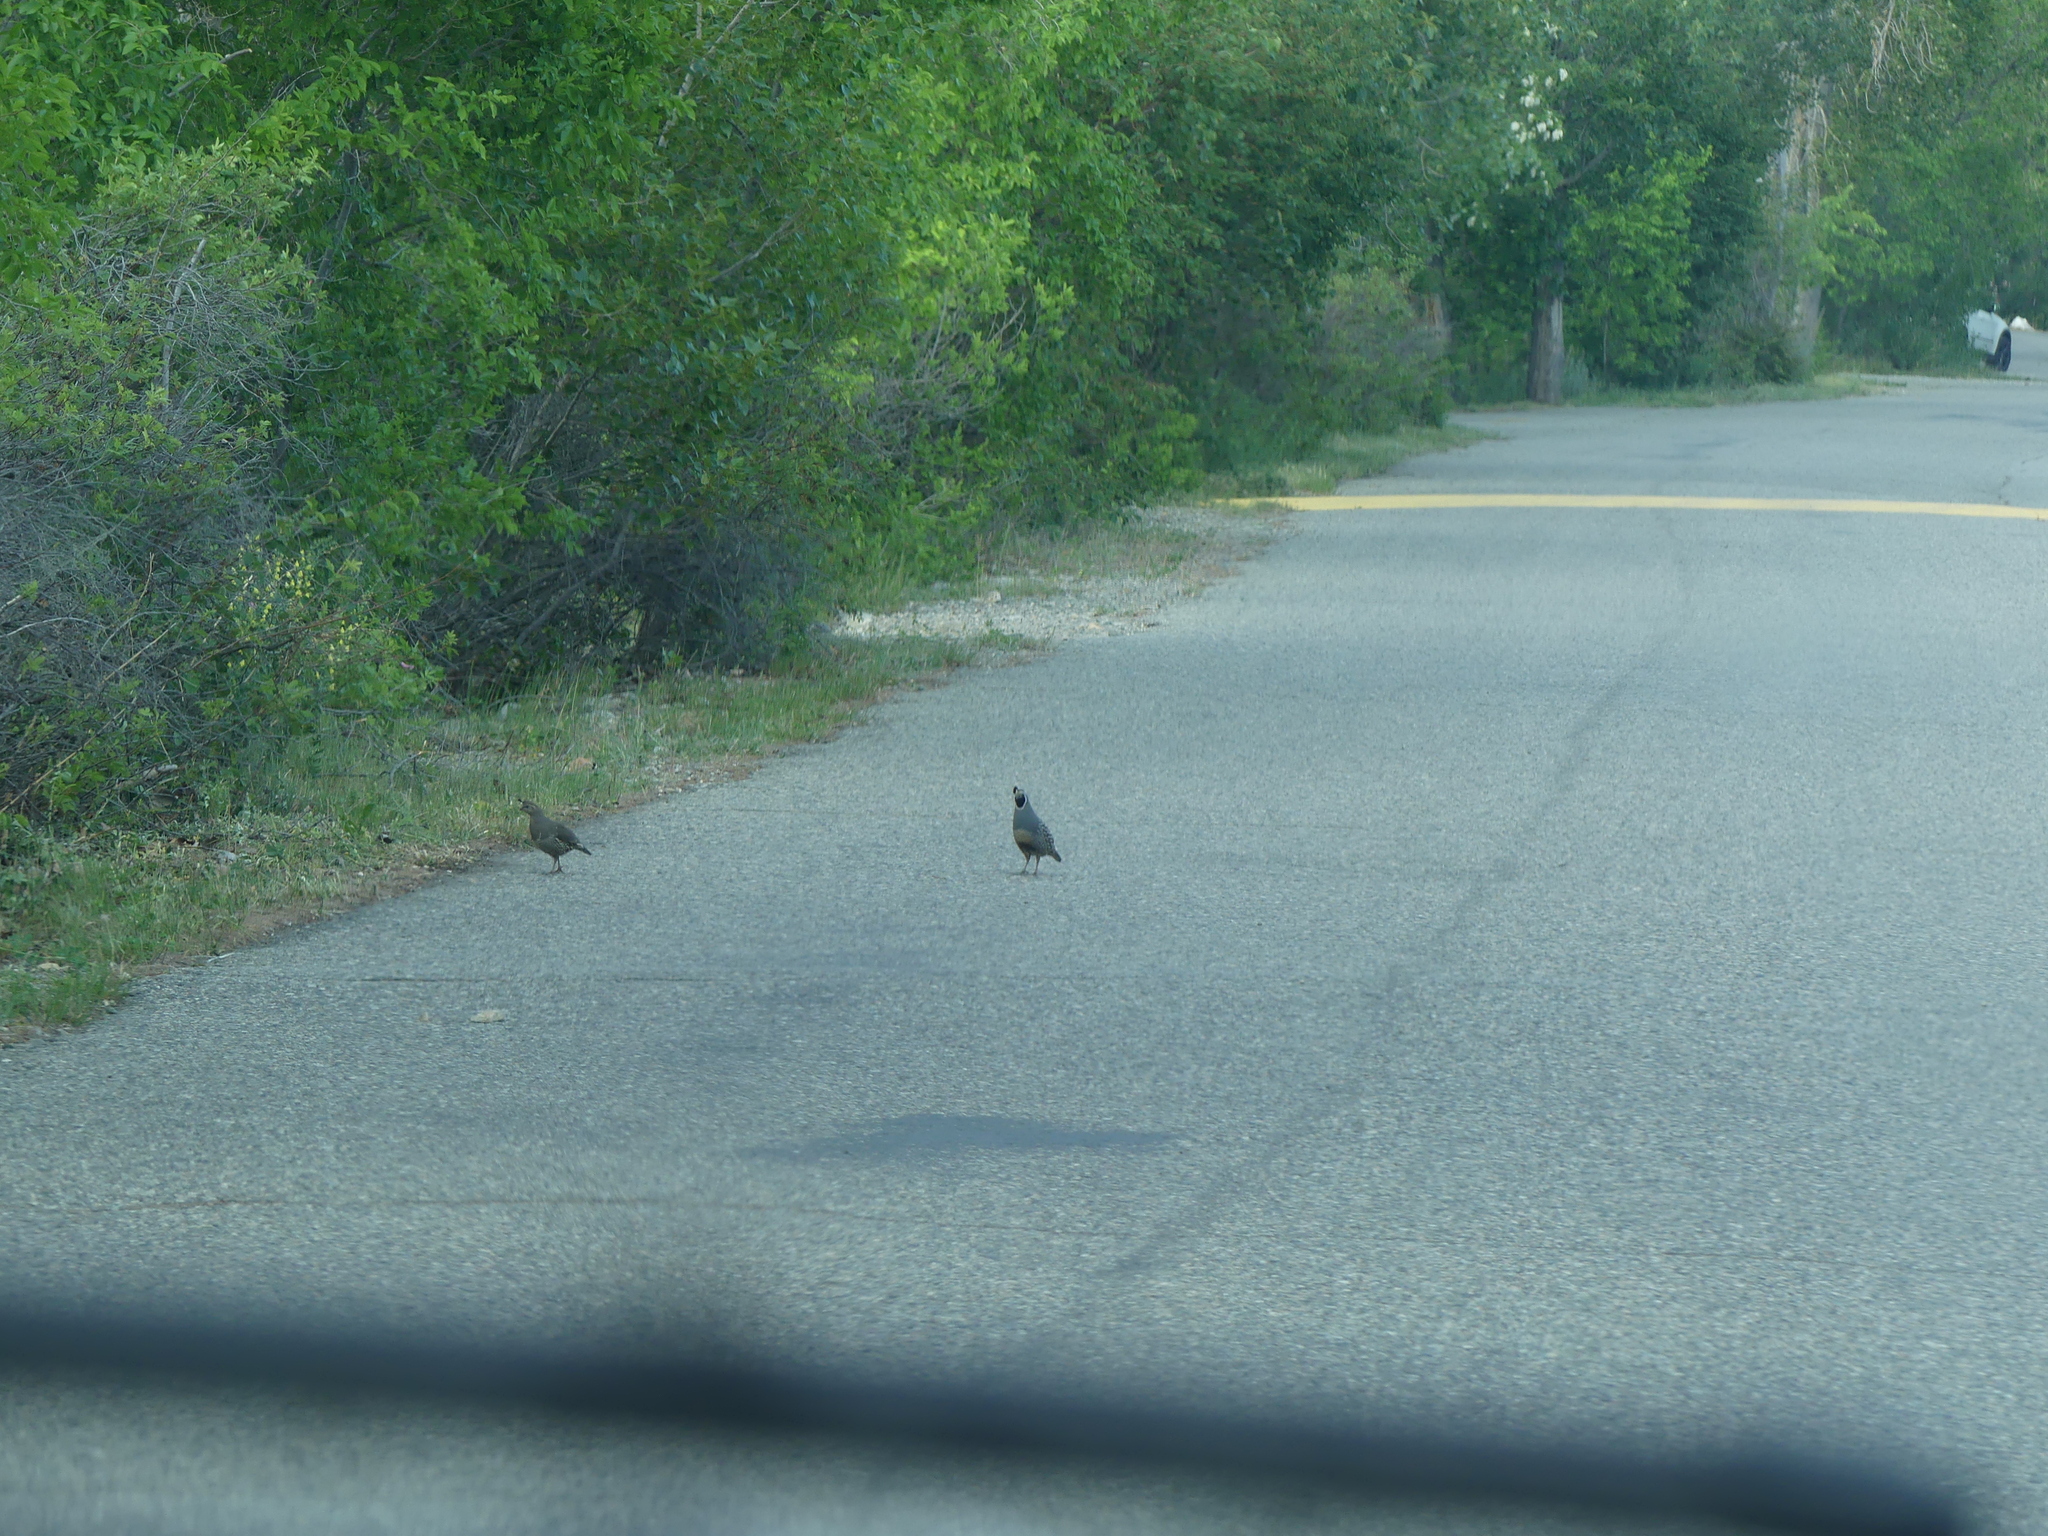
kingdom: Animalia
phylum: Chordata
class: Aves
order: Galliformes
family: Odontophoridae
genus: Callipepla
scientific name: Callipepla californica
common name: California quail
